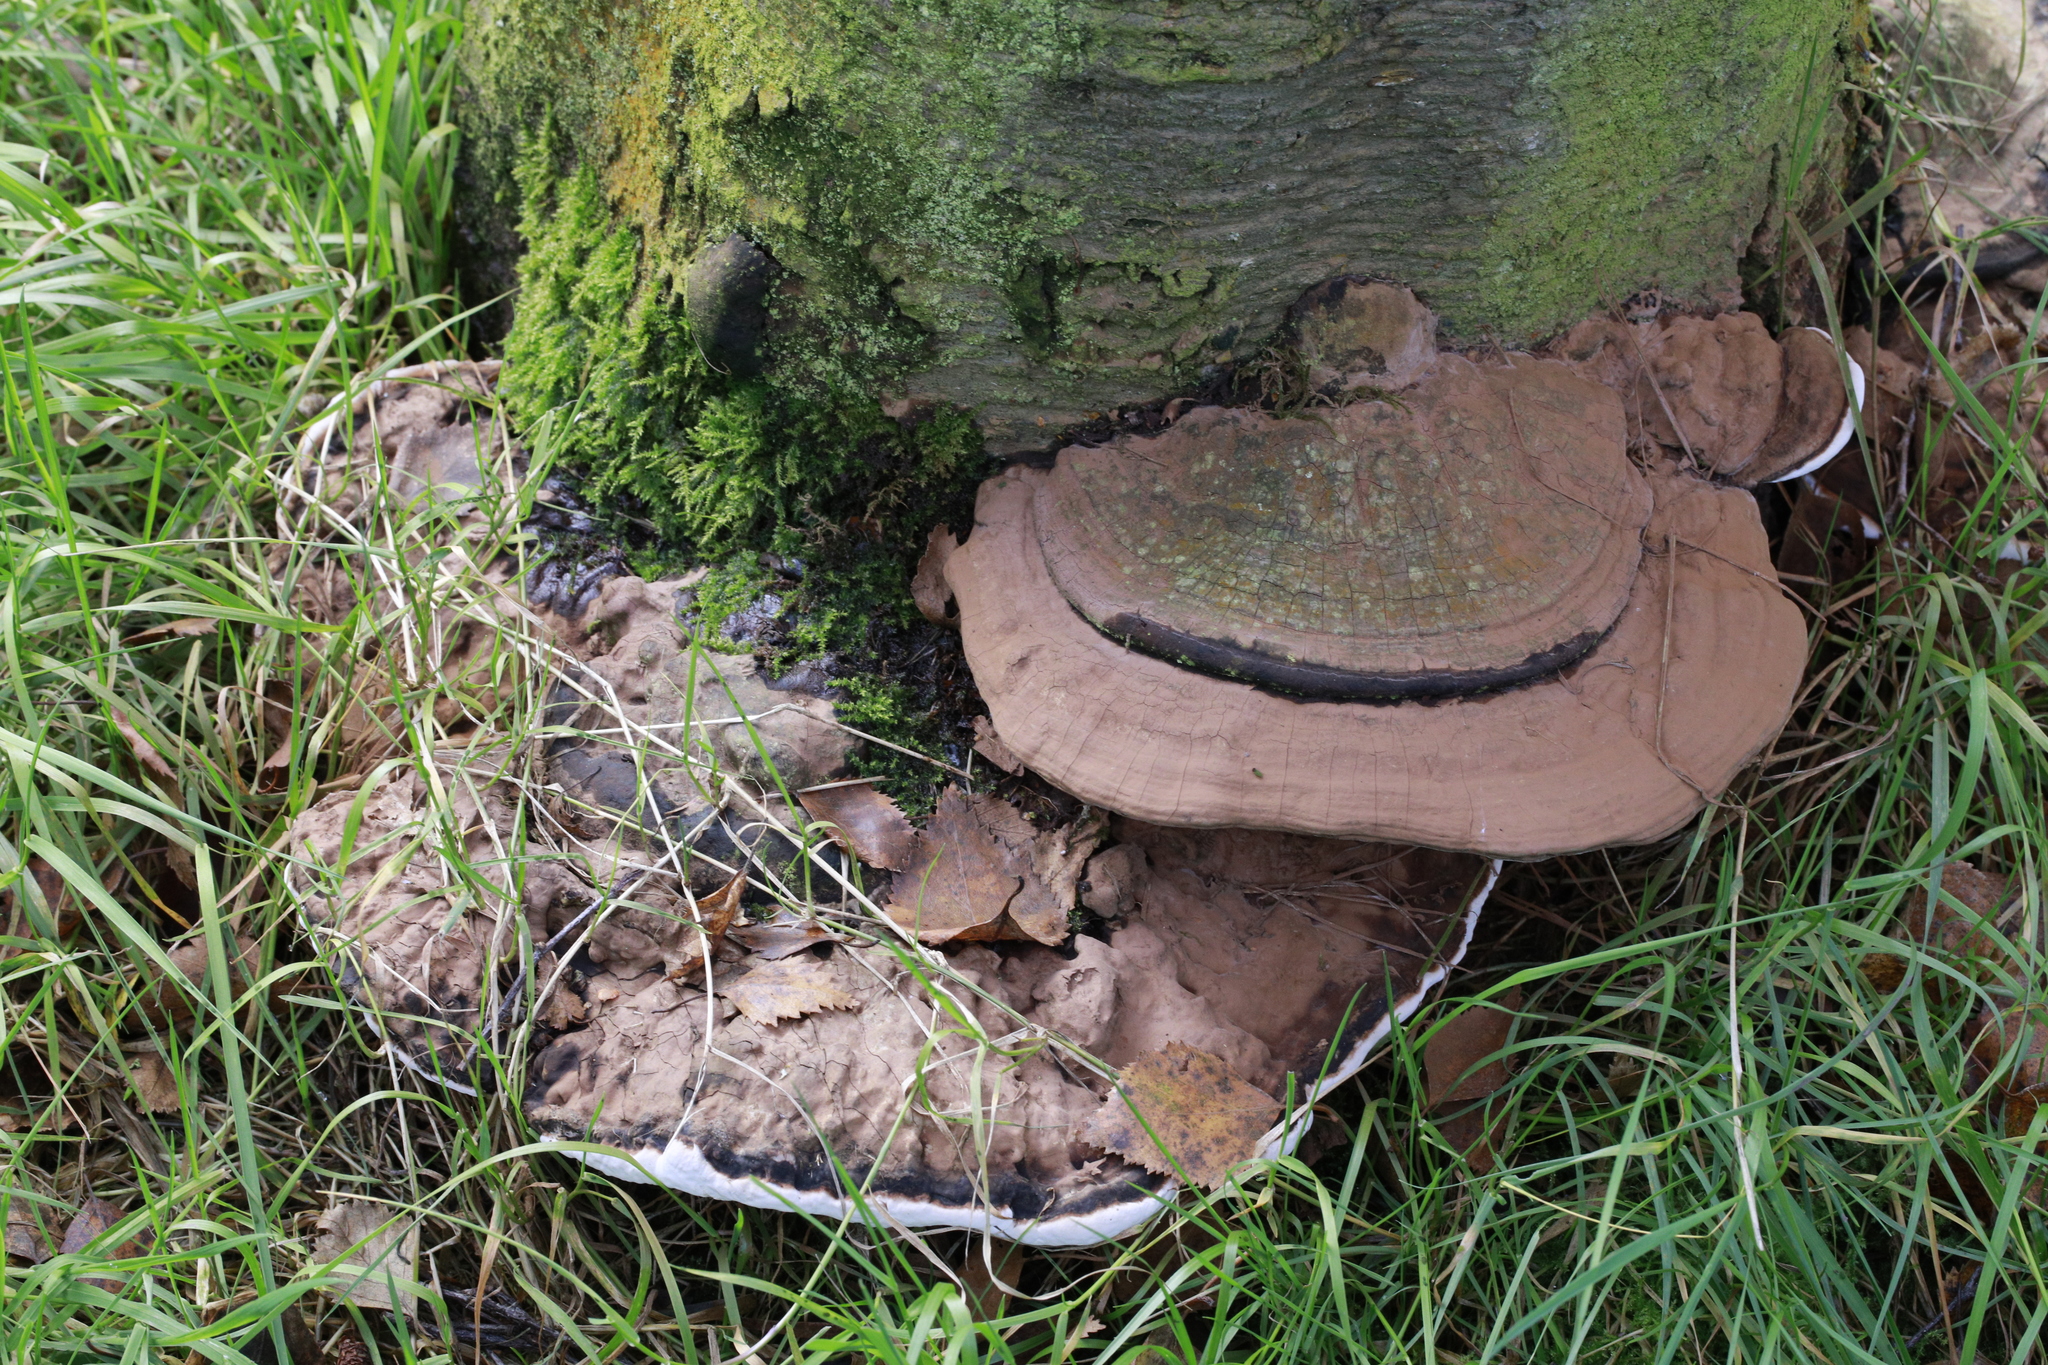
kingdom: Fungi
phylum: Basidiomycota
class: Agaricomycetes
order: Polyporales
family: Polyporaceae
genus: Ganoderma
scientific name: Ganoderma applanatum
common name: Artist's bracket
